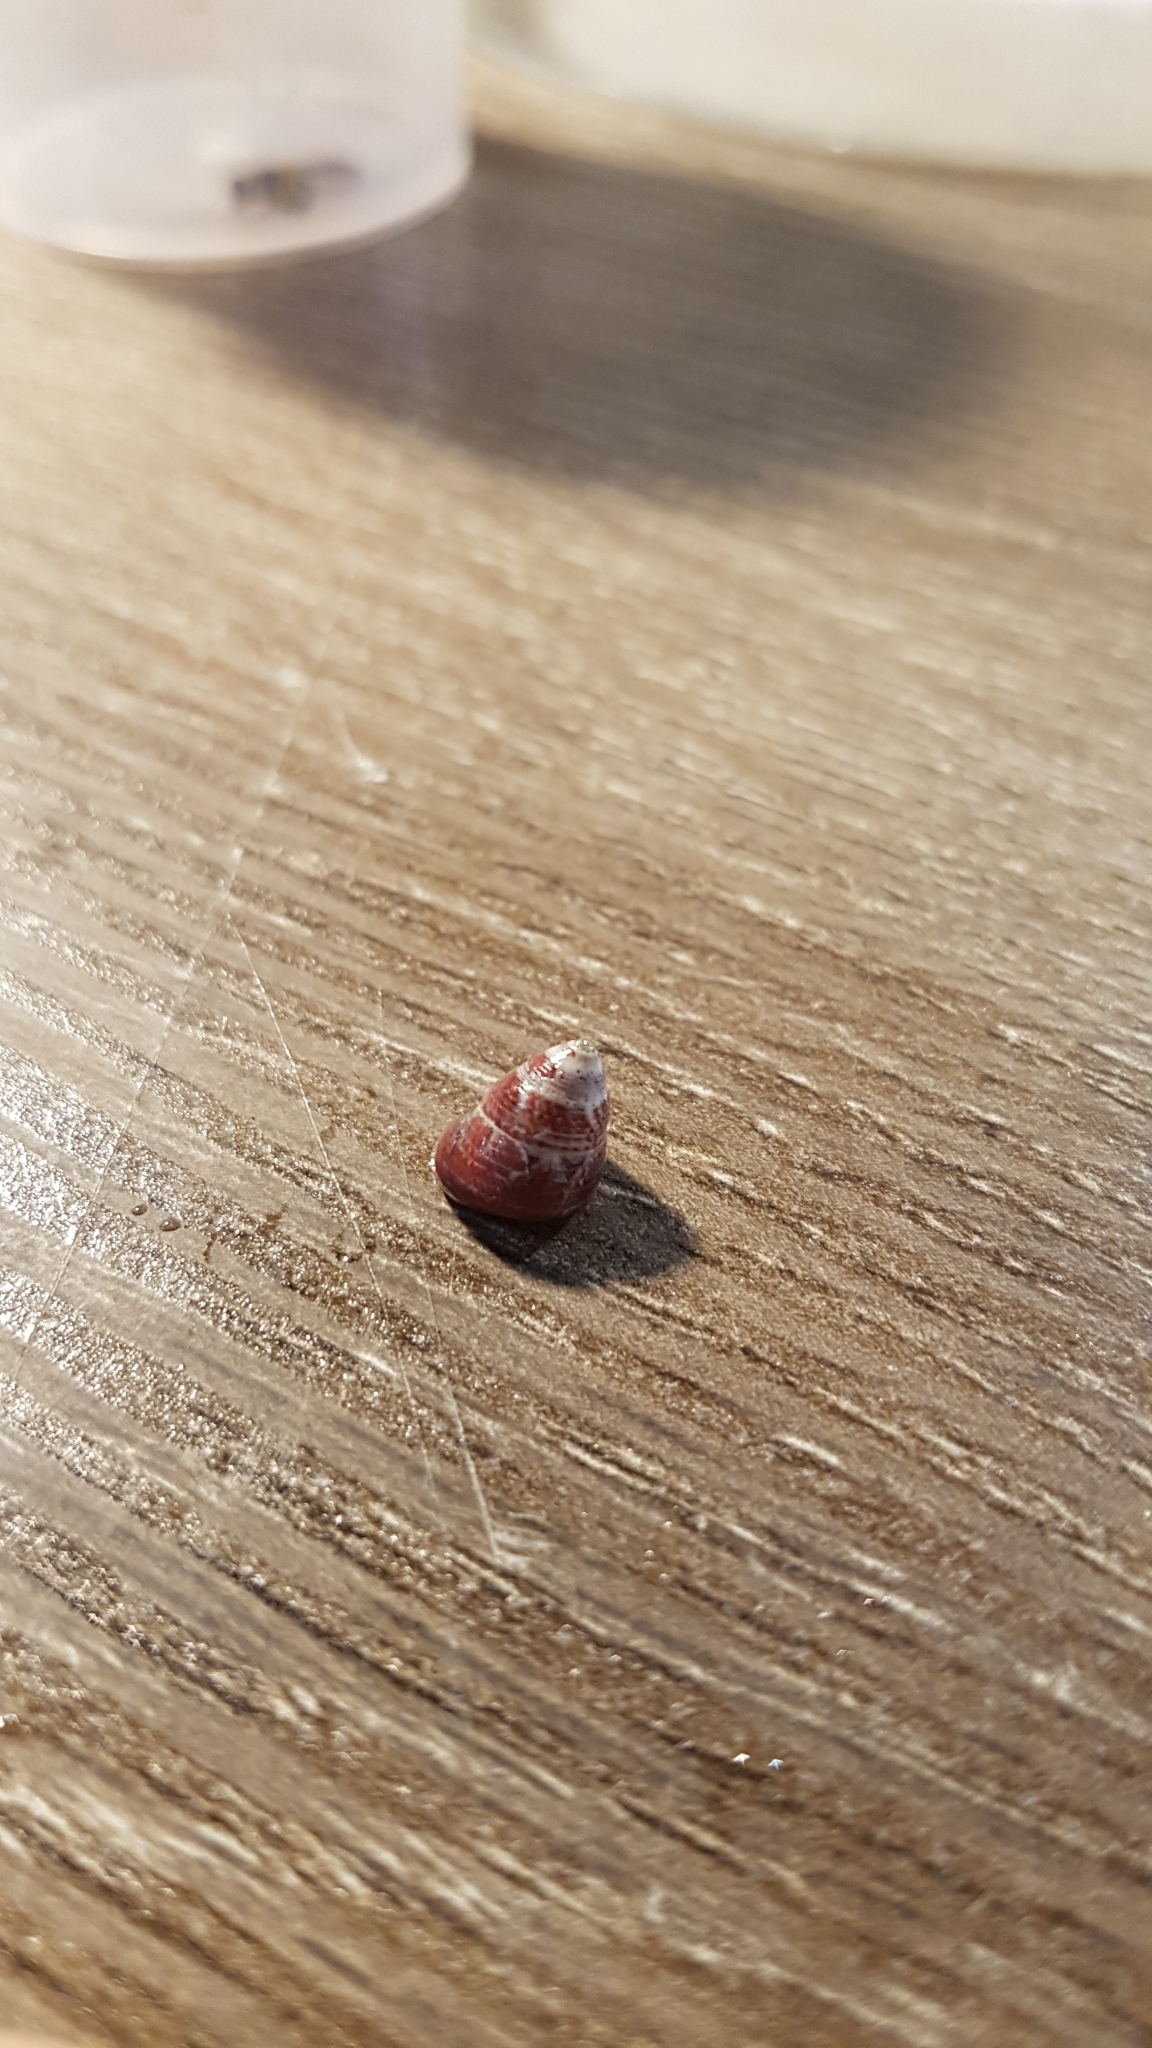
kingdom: Animalia
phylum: Mollusca
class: Gastropoda
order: Trochida
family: Trochidae
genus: Micrelenchus
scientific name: Micrelenchus sanguineus
